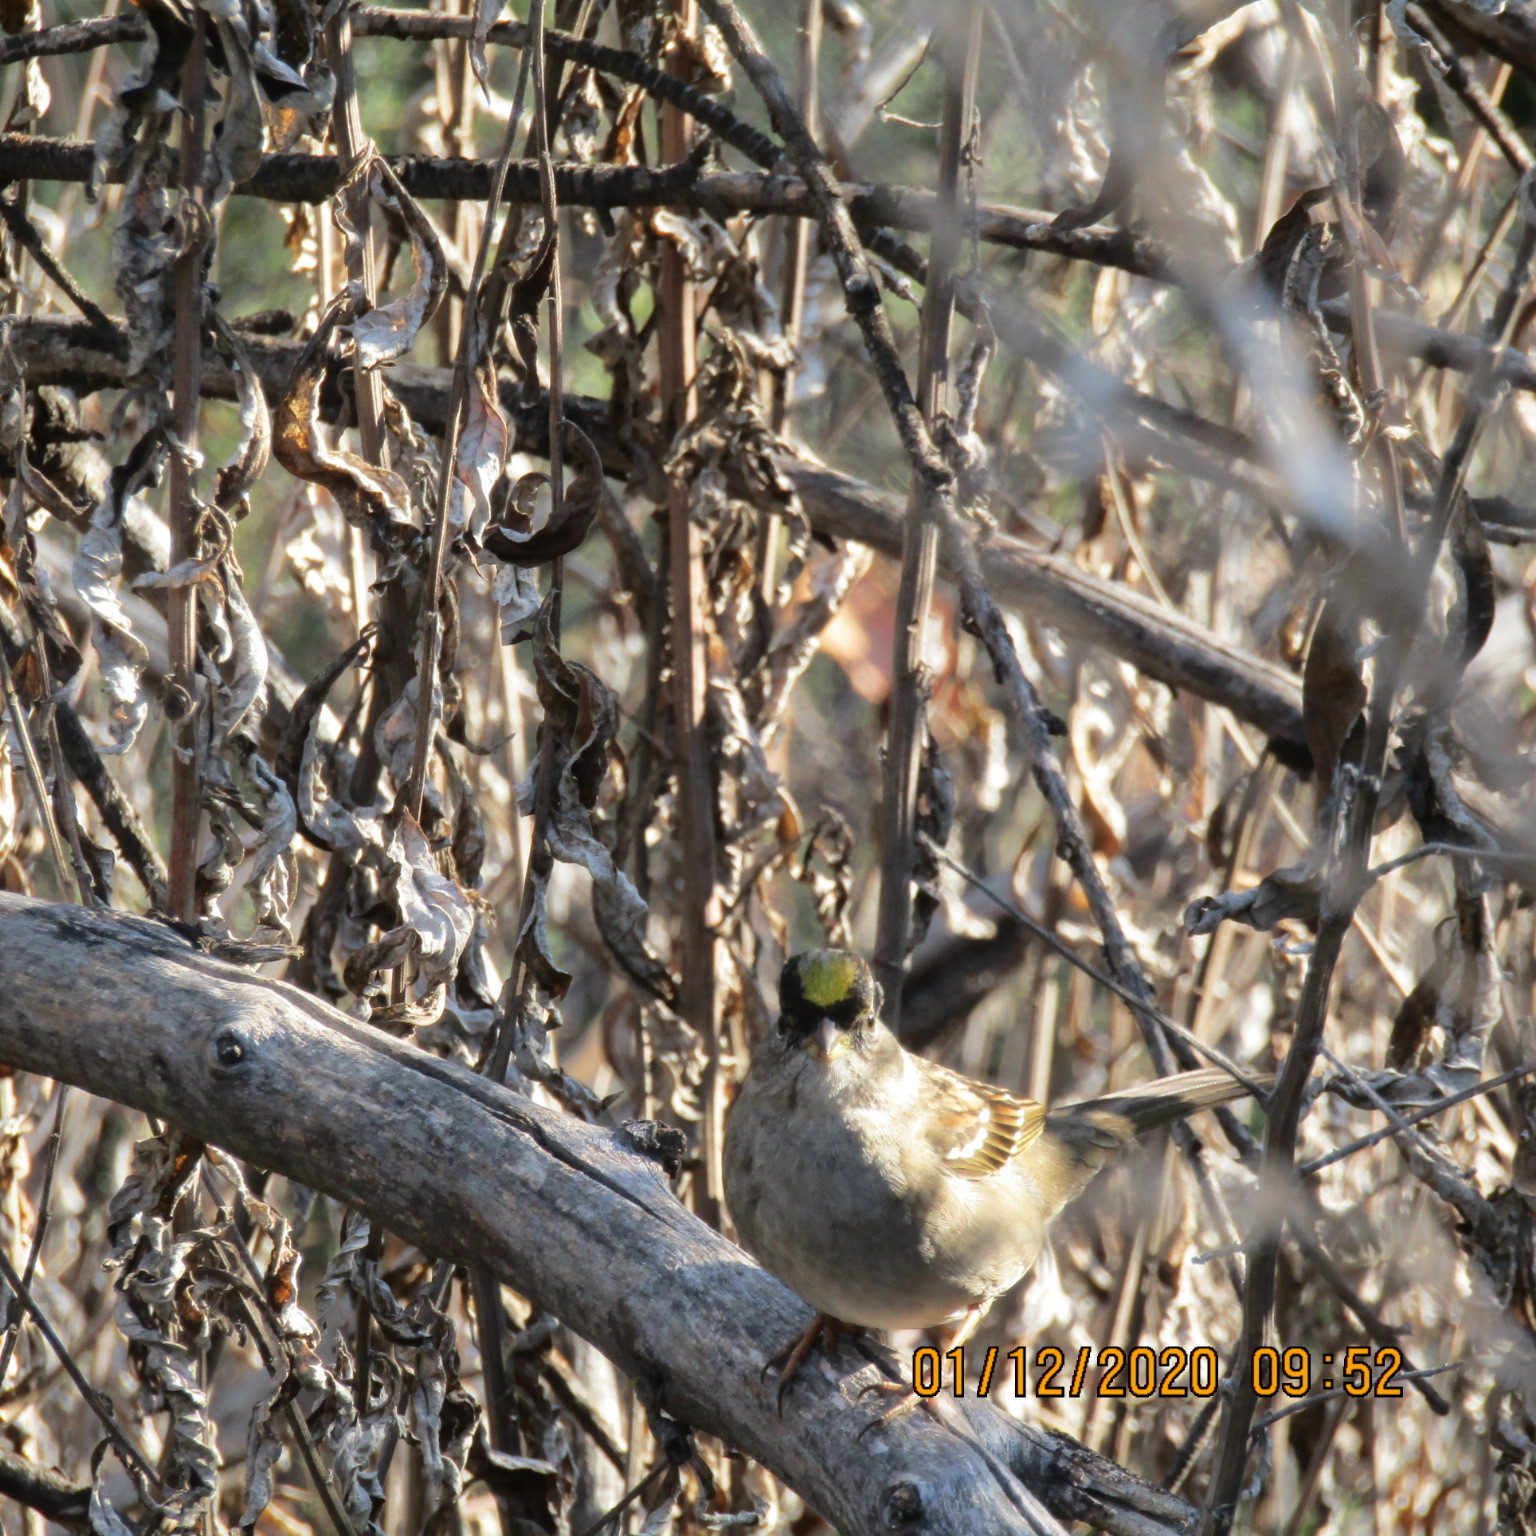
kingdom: Animalia
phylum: Chordata
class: Aves
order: Passeriformes
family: Passerellidae
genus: Zonotrichia
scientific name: Zonotrichia atricapilla
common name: Golden-crowned sparrow
